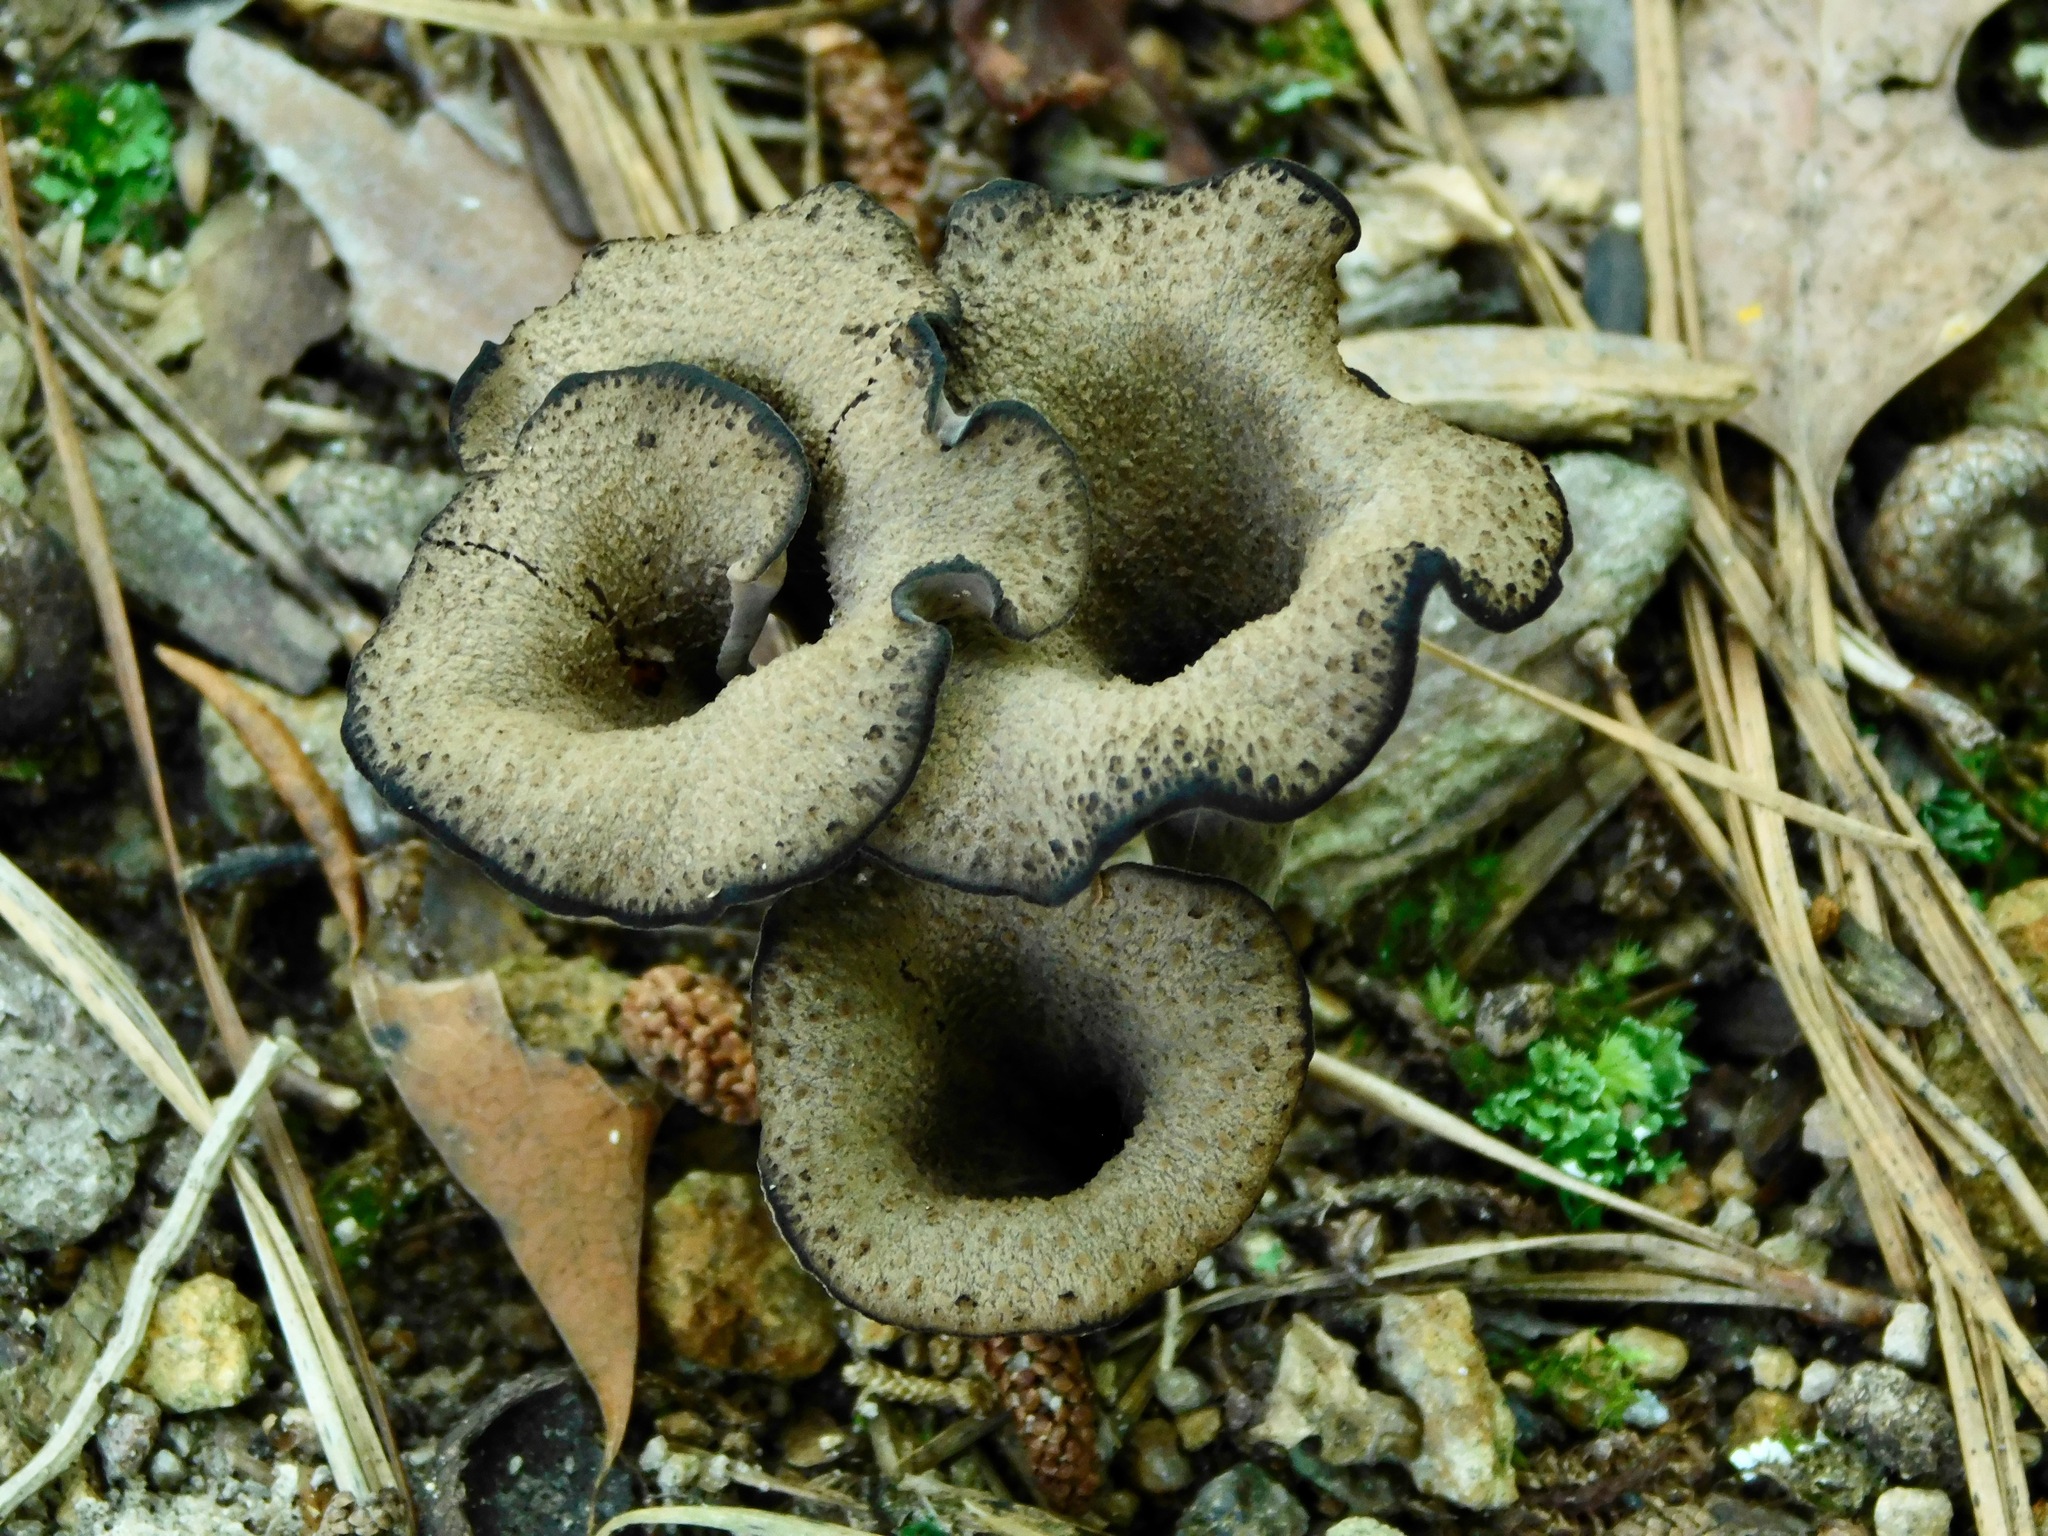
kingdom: Fungi
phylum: Basidiomycota
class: Agaricomycetes
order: Cantharellales
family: Hydnaceae
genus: Craterellus
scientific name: Craterellus cornucopioides
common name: Horn of plenty
